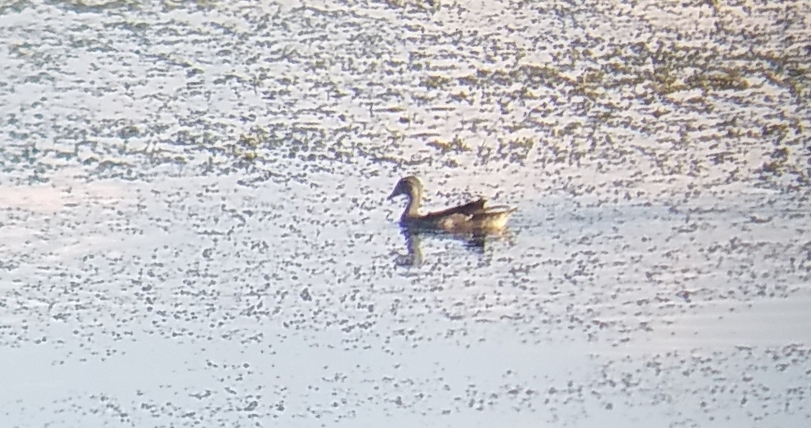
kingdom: Animalia
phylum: Chordata
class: Aves
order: Anseriformes
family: Anatidae
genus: Aix
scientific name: Aix sponsa
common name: Wood duck
